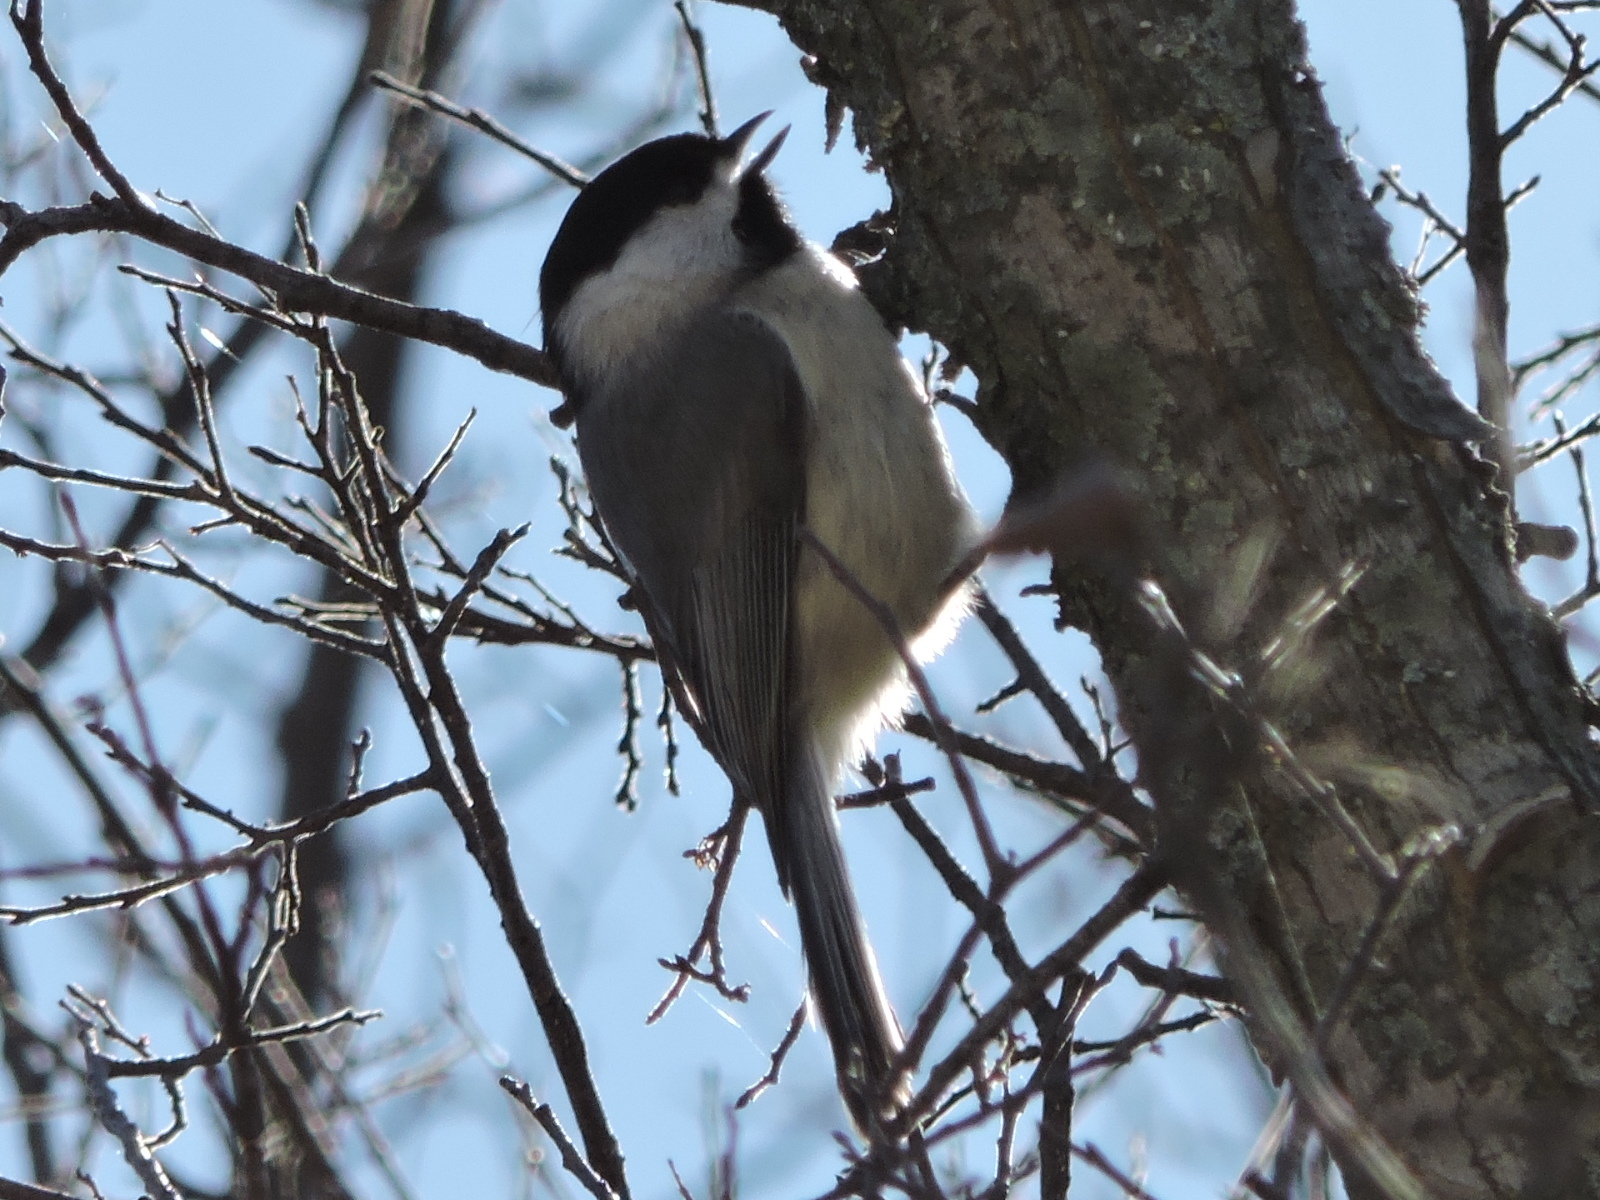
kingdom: Animalia
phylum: Chordata
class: Aves
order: Passeriformes
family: Paridae
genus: Poecile
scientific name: Poecile carolinensis
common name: Carolina chickadee
